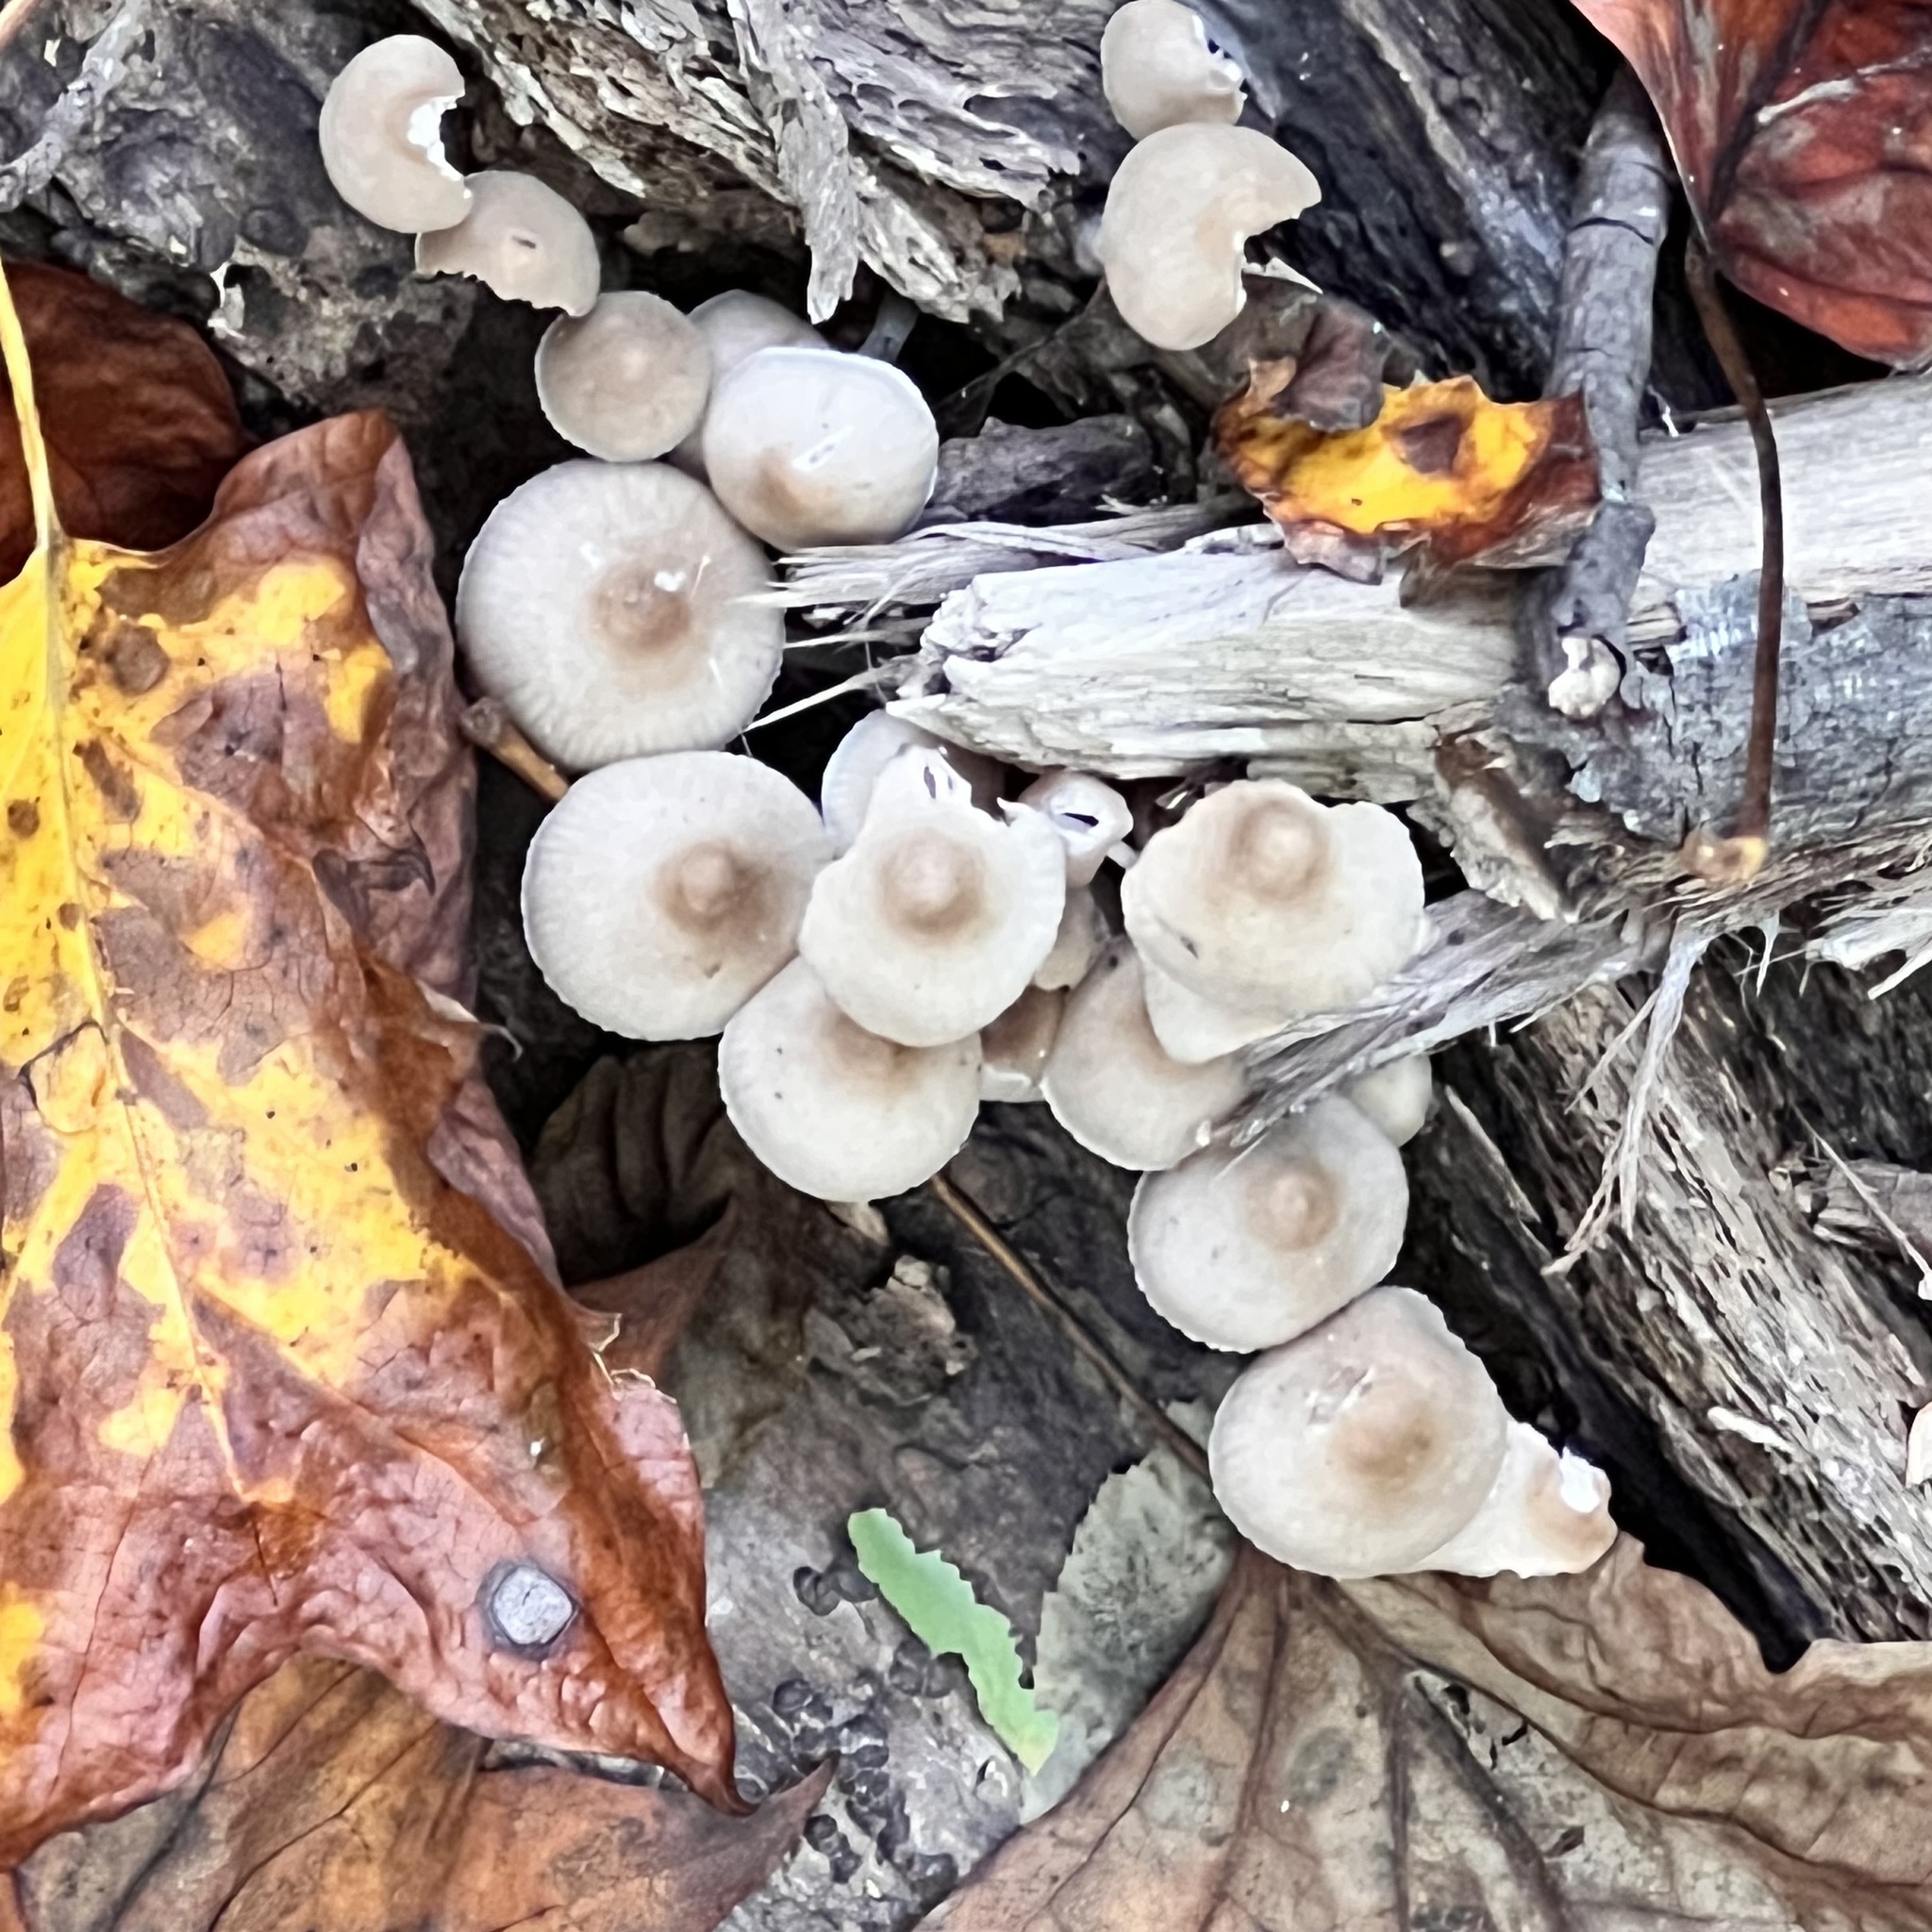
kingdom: Fungi
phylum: Basidiomycota
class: Agaricomycetes
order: Agaricales
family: Mycenaceae
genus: Mycena
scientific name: Mycena inclinata
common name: Clustered bonnet
